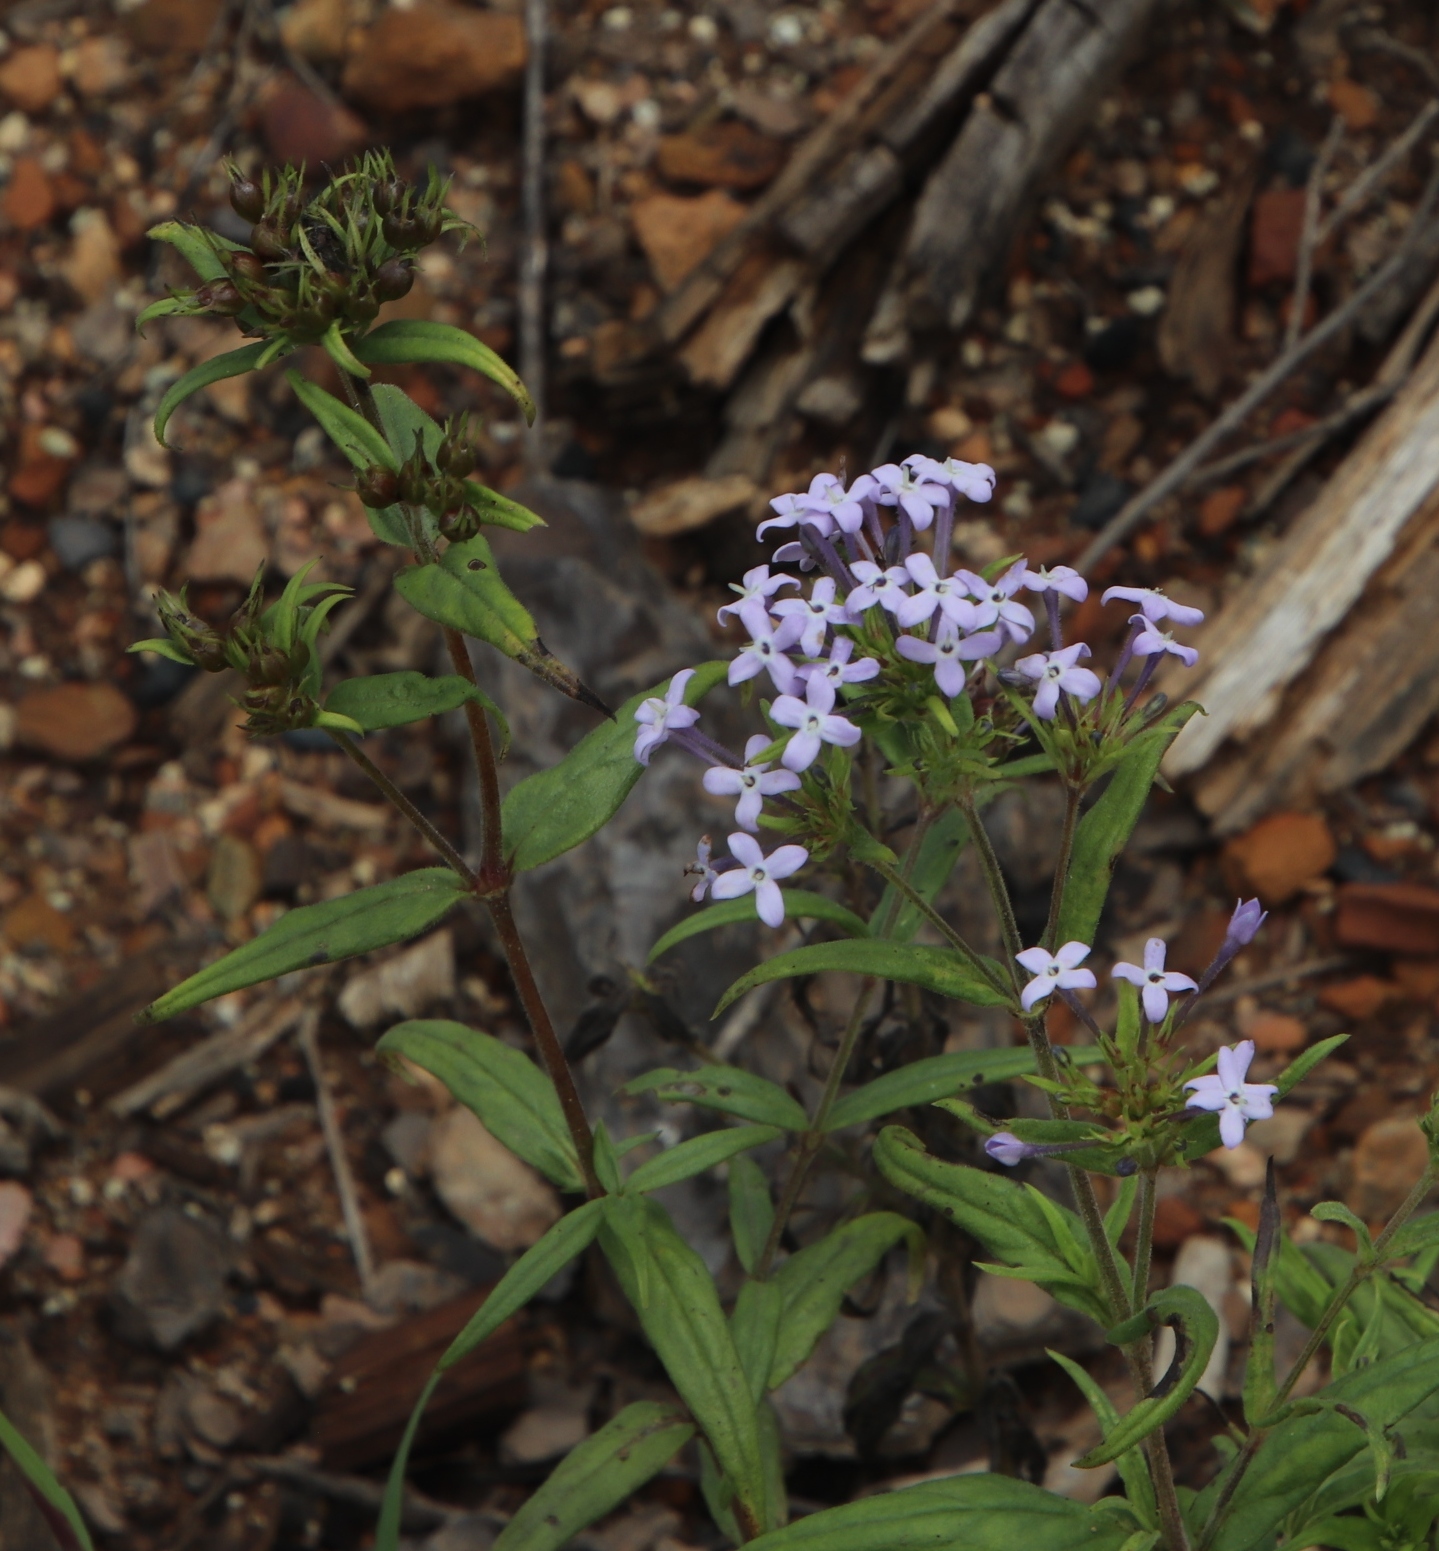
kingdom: Plantae
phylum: Tracheophyta
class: Magnoliopsida
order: Gentianales
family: Rubiaceae
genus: Conostomium
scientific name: Conostomium natalense
